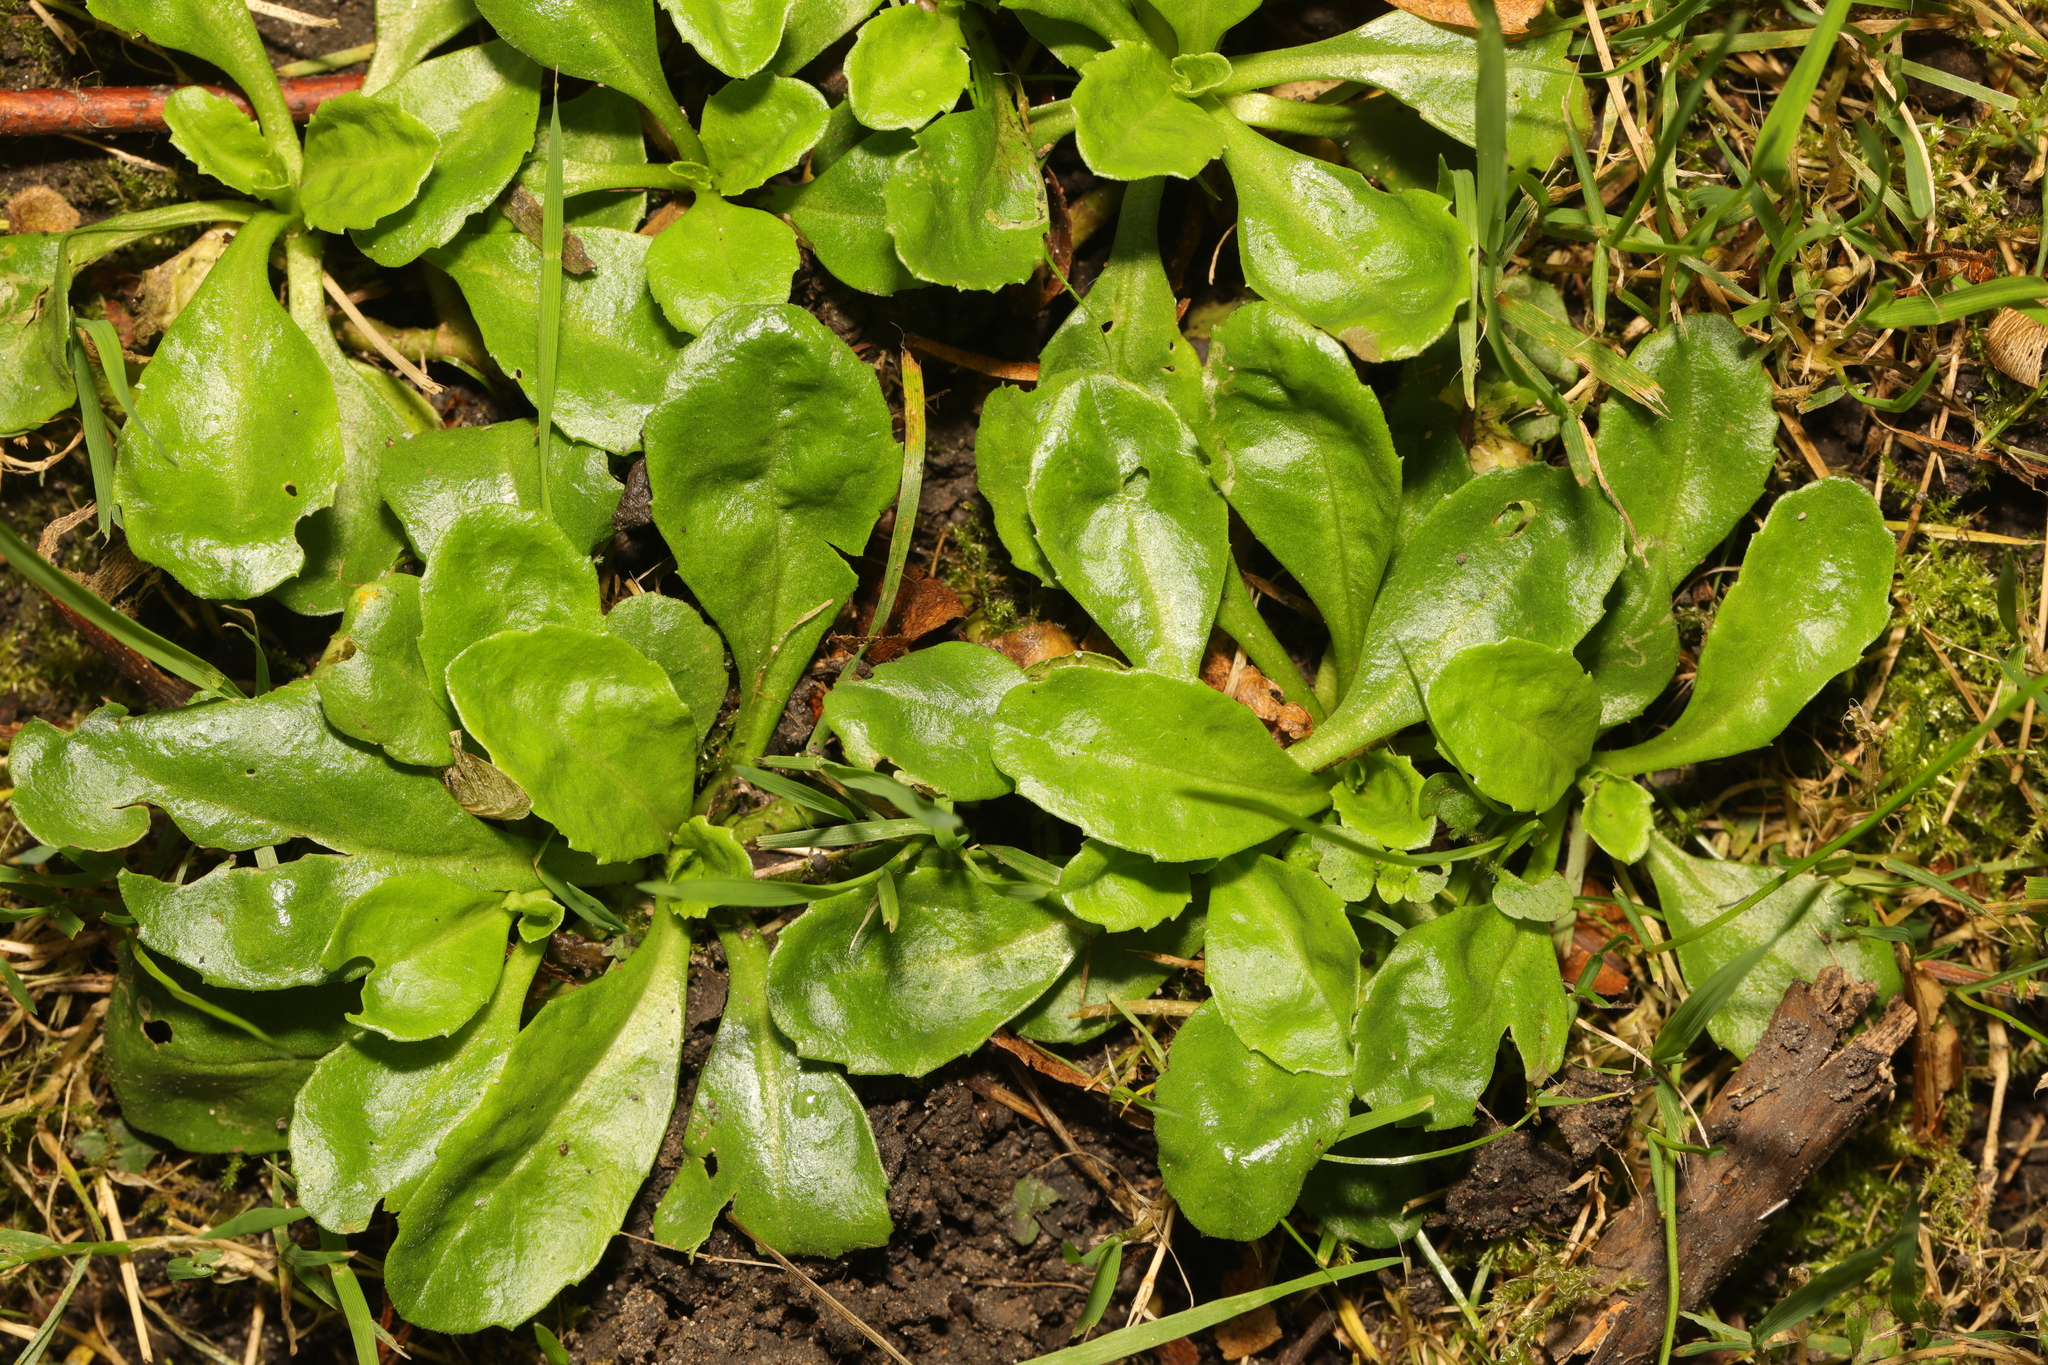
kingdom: Plantae
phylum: Tracheophyta
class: Magnoliopsida
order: Asterales
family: Asteraceae
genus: Bellis
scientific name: Bellis perennis
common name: Lawndaisy
